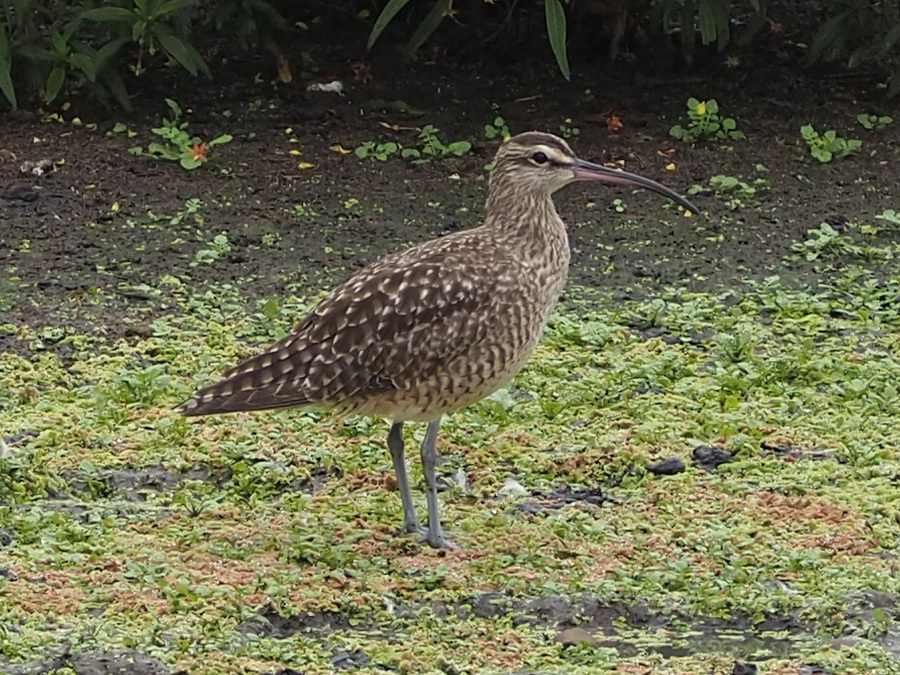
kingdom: Animalia
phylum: Chordata
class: Aves
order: Charadriiformes
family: Scolopacidae
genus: Numenius
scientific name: Numenius phaeopus
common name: Whimbrel
